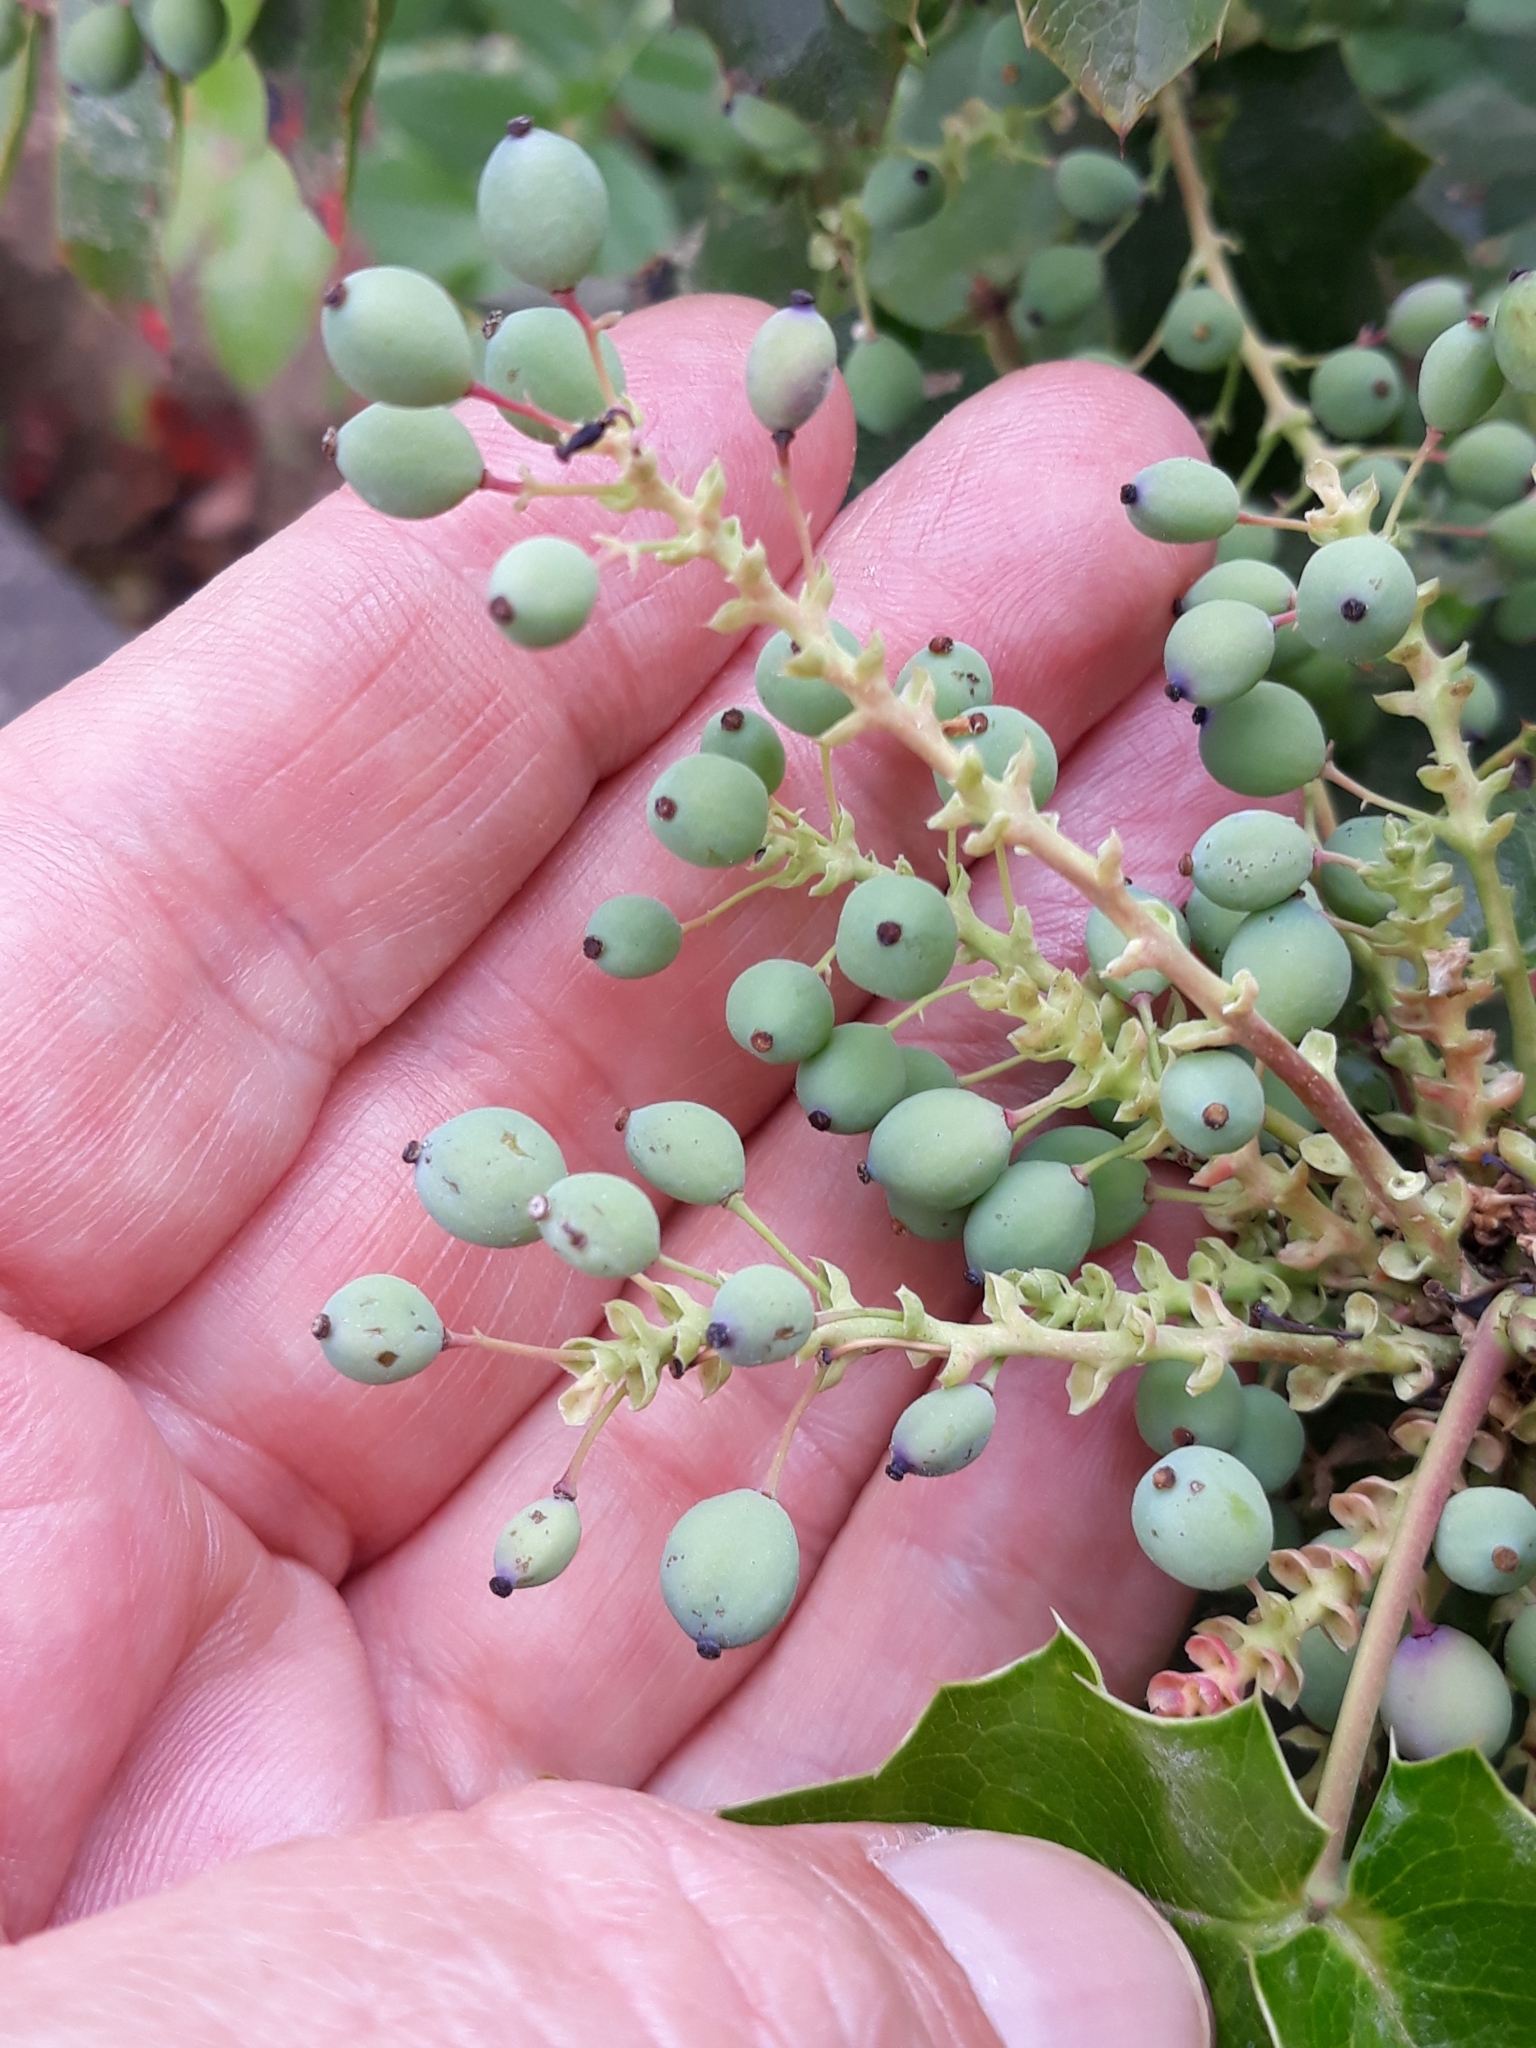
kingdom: Plantae
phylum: Tracheophyta
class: Magnoliopsida
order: Ranunculales
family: Berberidaceae
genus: Mahonia
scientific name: Mahonia aquifolium
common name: Oregon-grape
